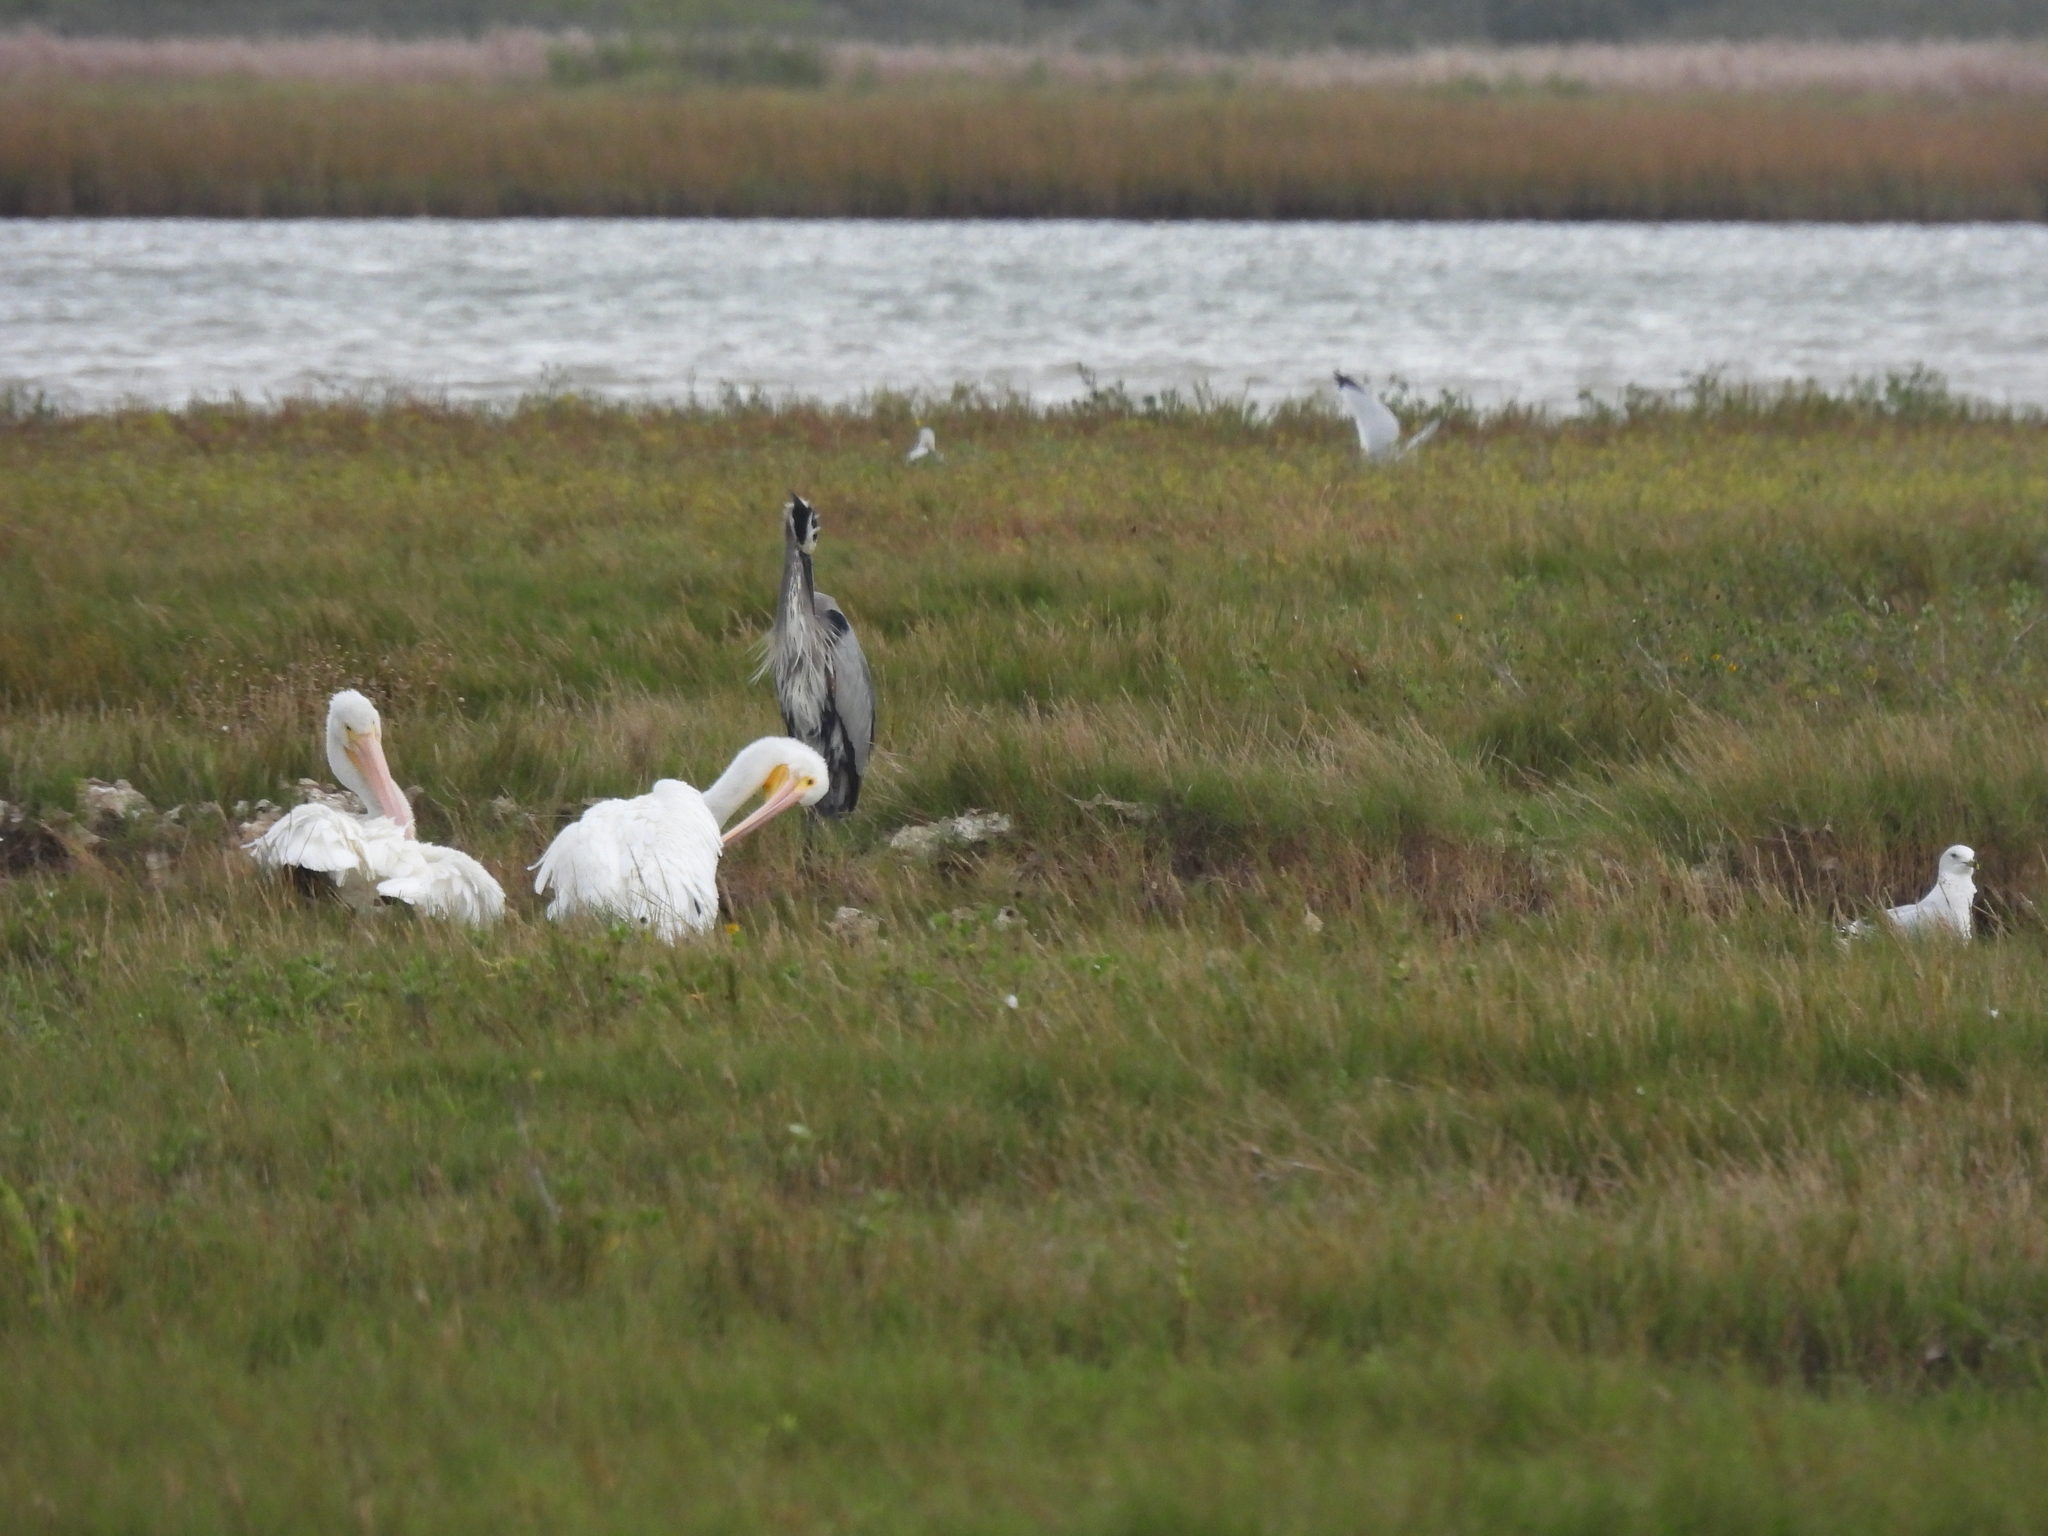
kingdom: Animalia
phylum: Chordata
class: Aves
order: Pelecaniformes
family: Ardeidae
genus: Ardea
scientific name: Ardea herodias
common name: Great blue heron
